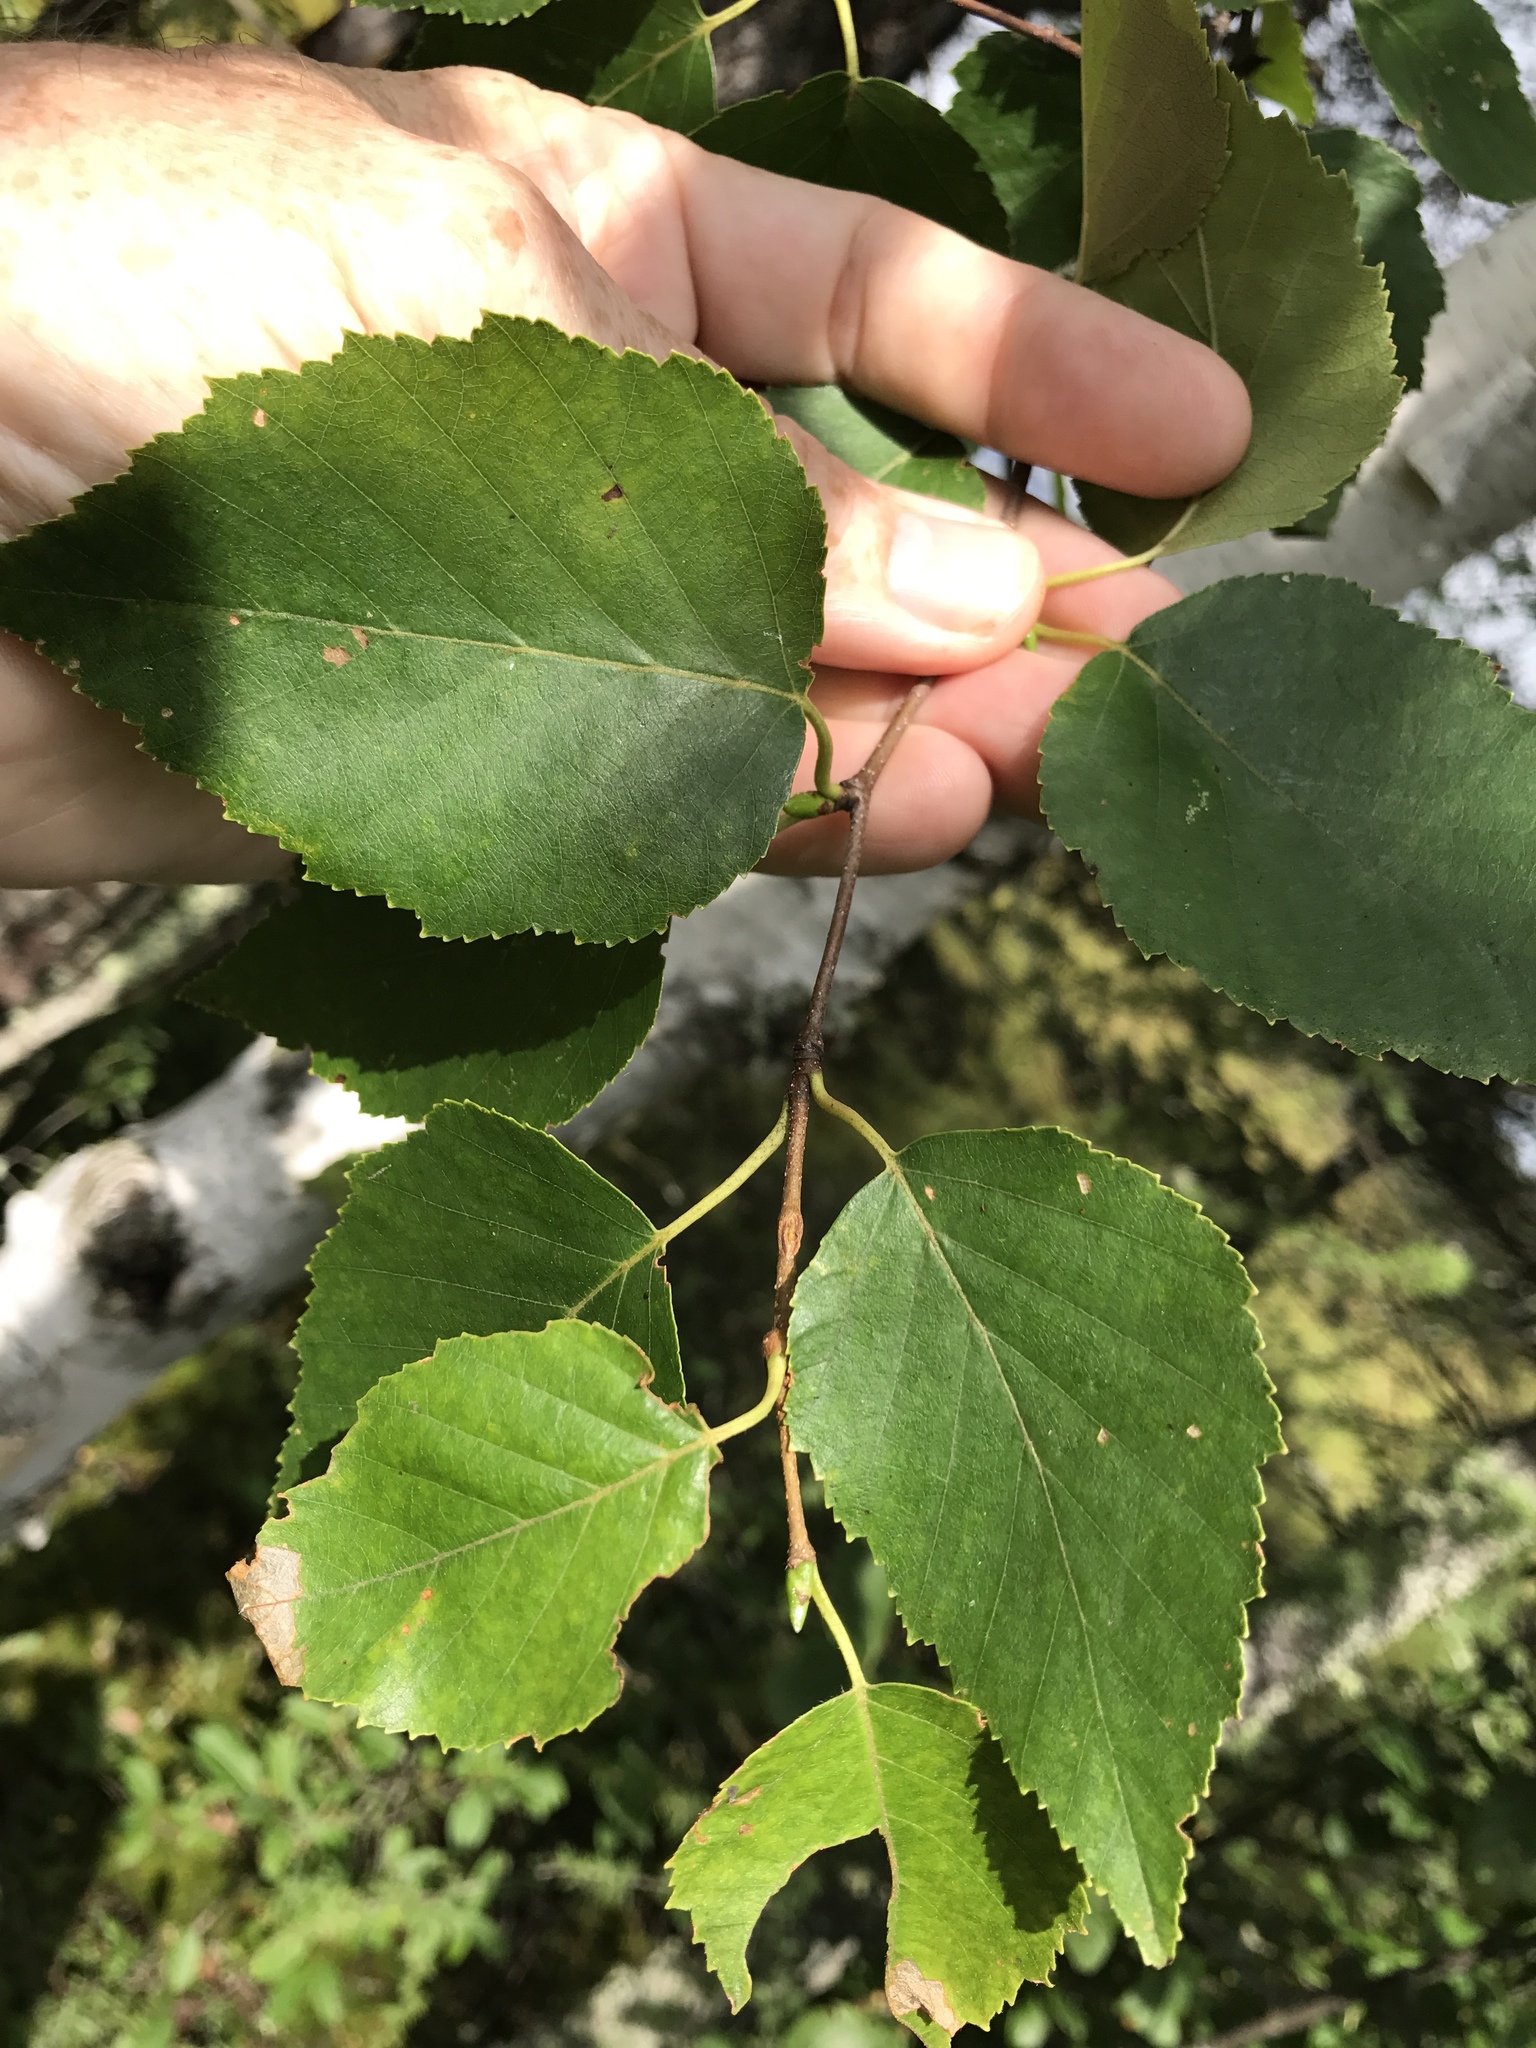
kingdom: Plantae
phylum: Tracheophyta
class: Magnoliopsida
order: Fagales
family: Betulaceae
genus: Betula
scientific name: Betula papyrifera
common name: Paper birch
